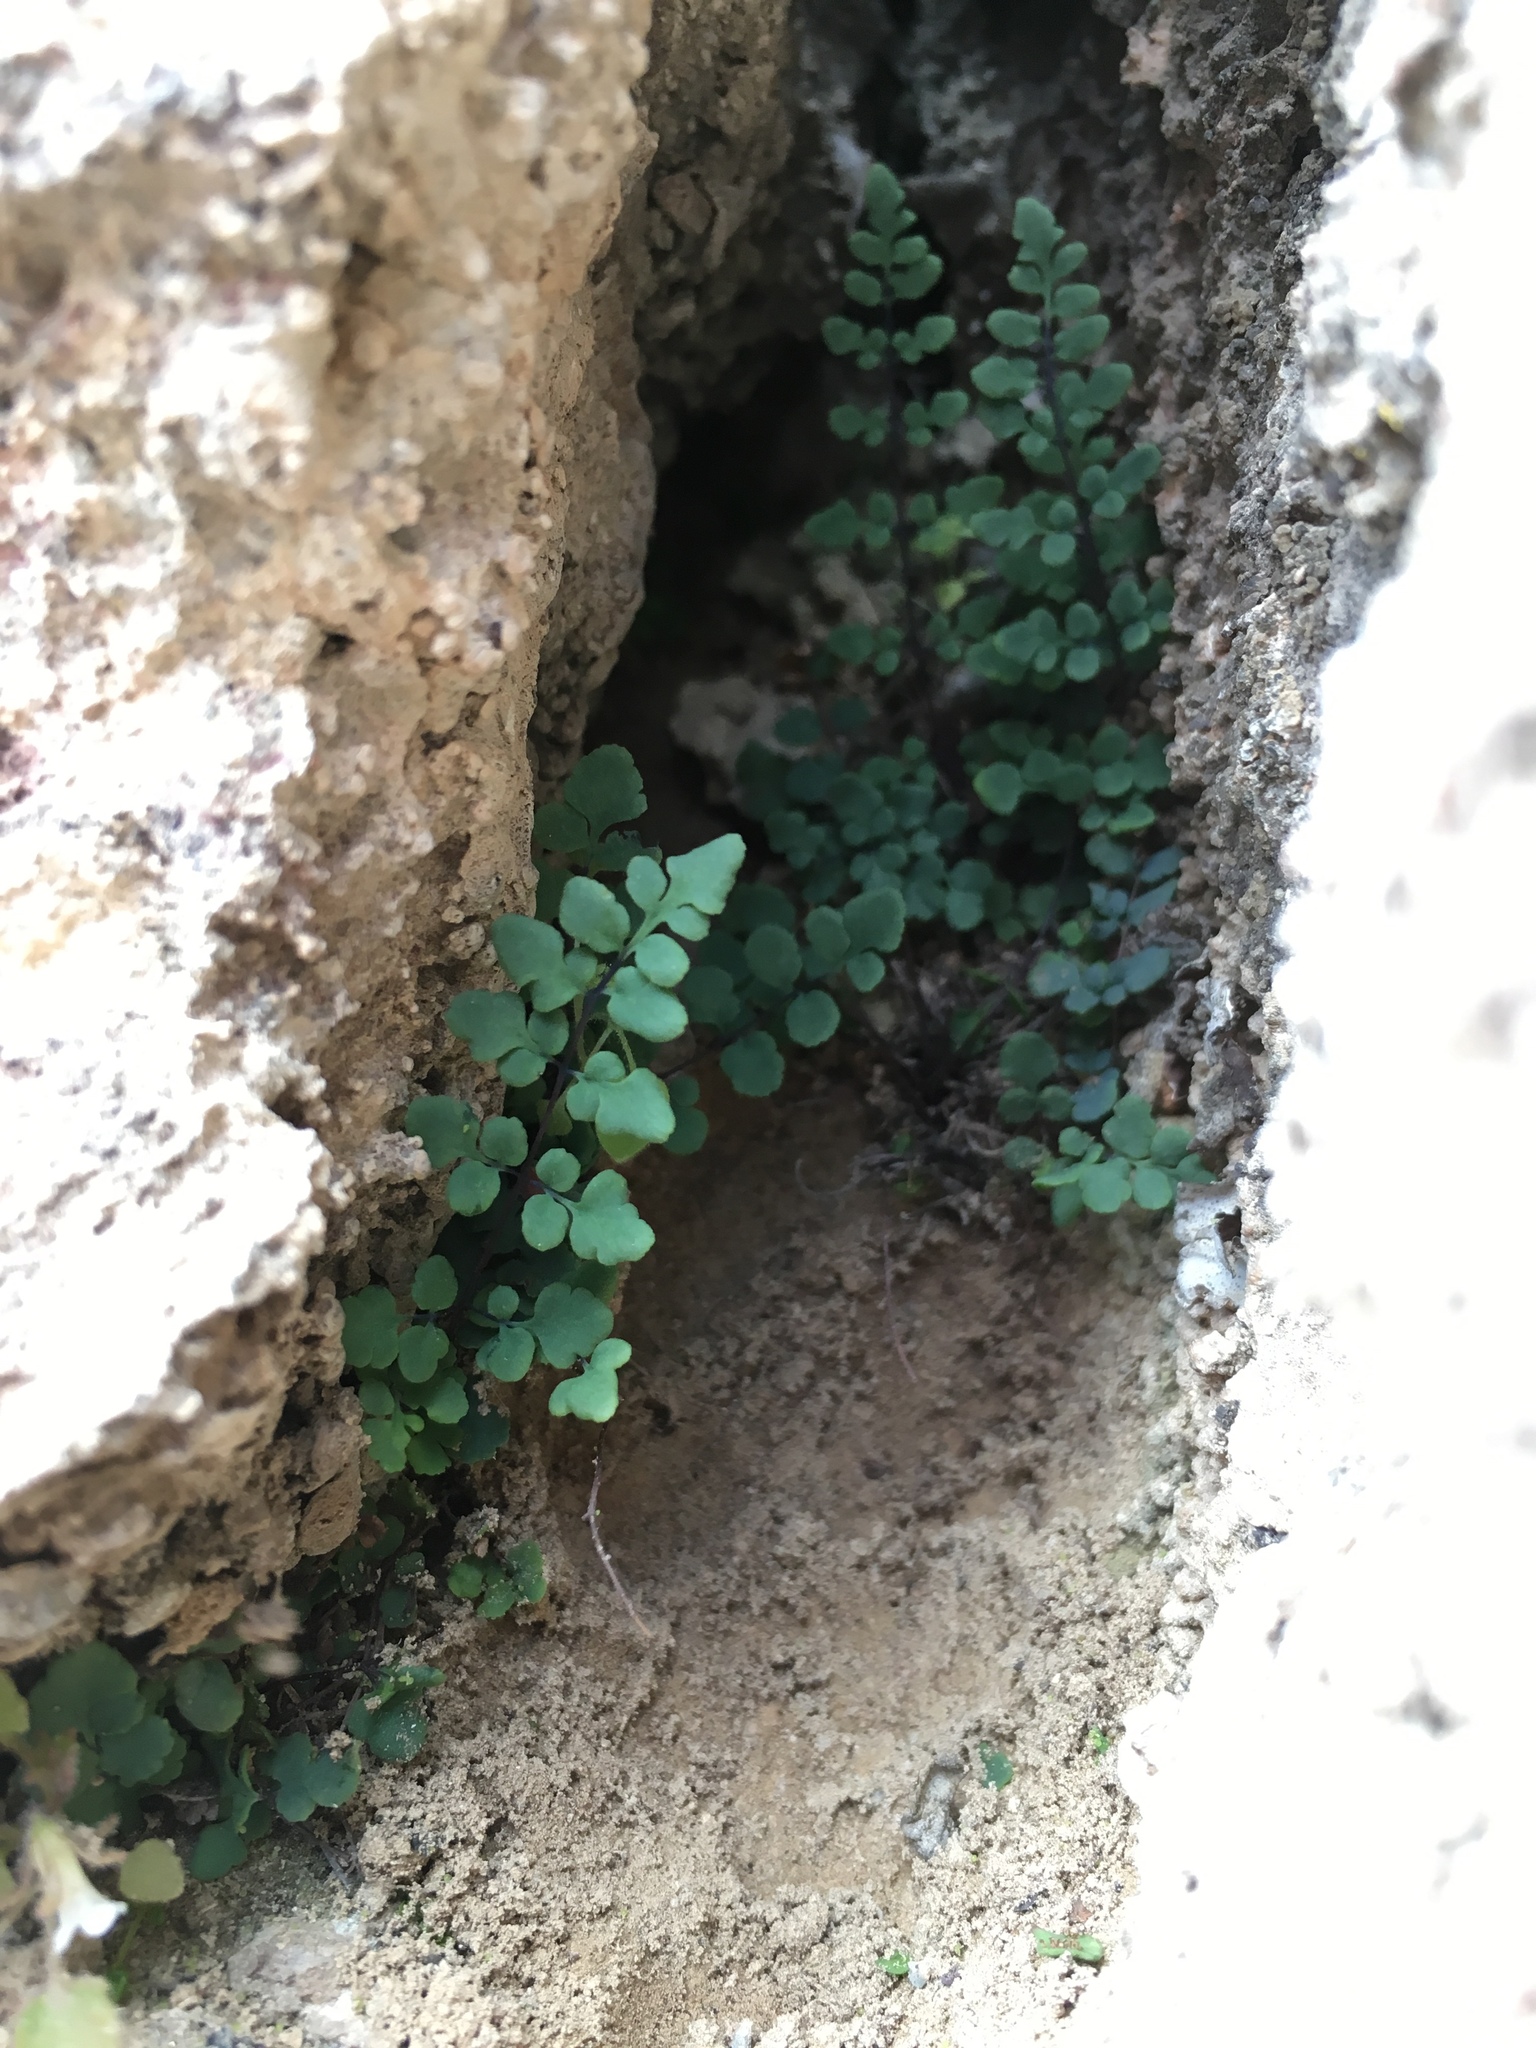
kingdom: Plantae
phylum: Tracheophyta
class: Polypodiopsida
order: Polypodiales
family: Pteridaceae
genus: Argyrochosma
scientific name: Argyrochosma jonesii
